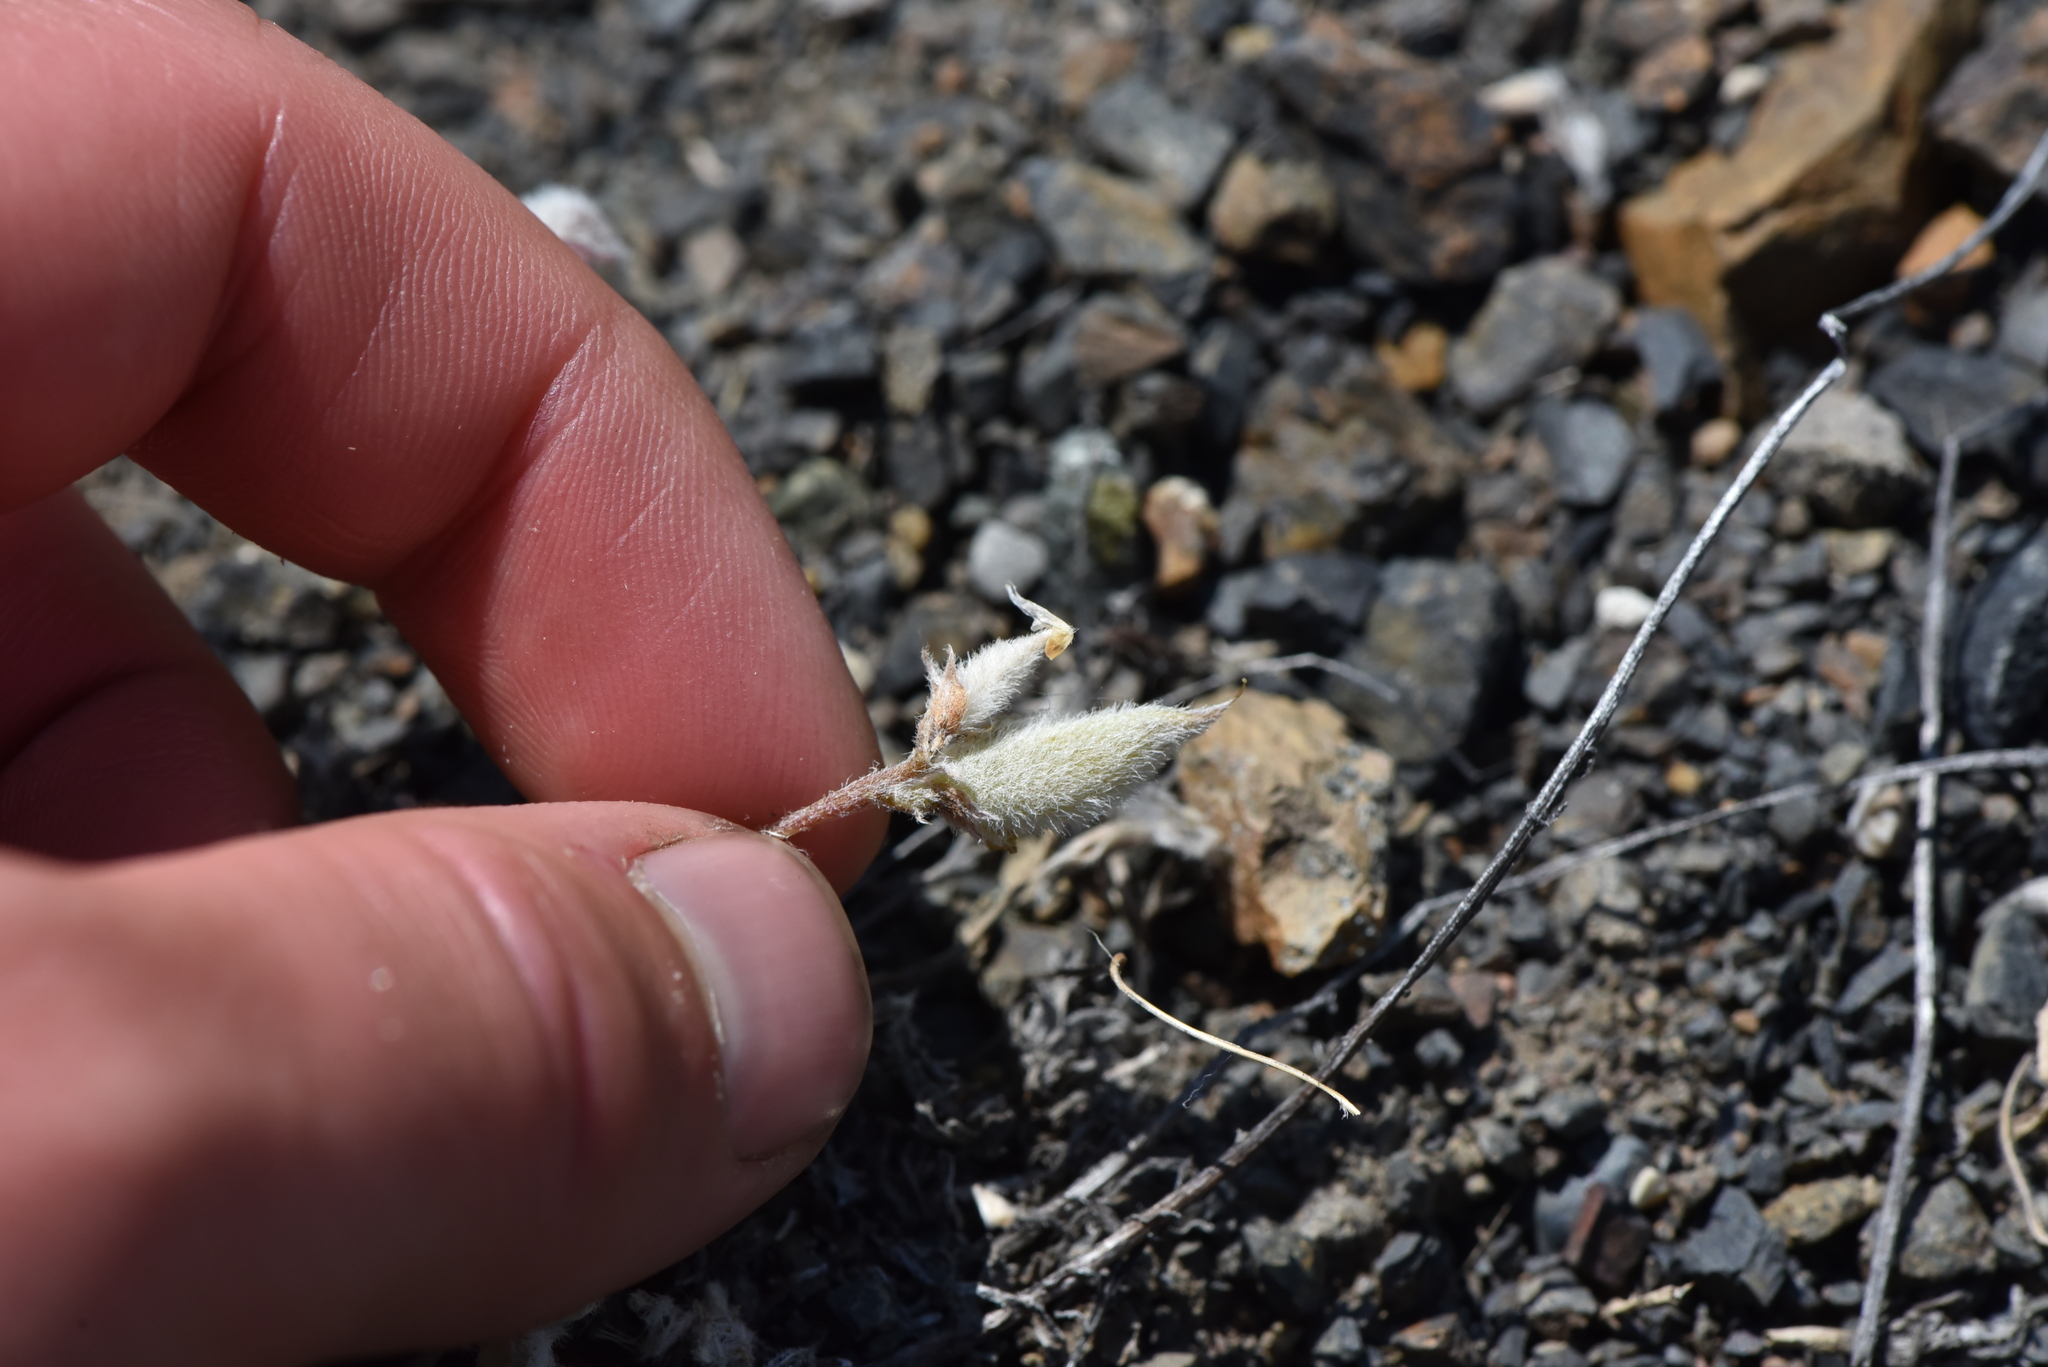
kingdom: Plantae
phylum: Tracheophyta
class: Magnoliopsida
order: Fabales
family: Fabaceae
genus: Astragalus
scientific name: Astragalus purshii
